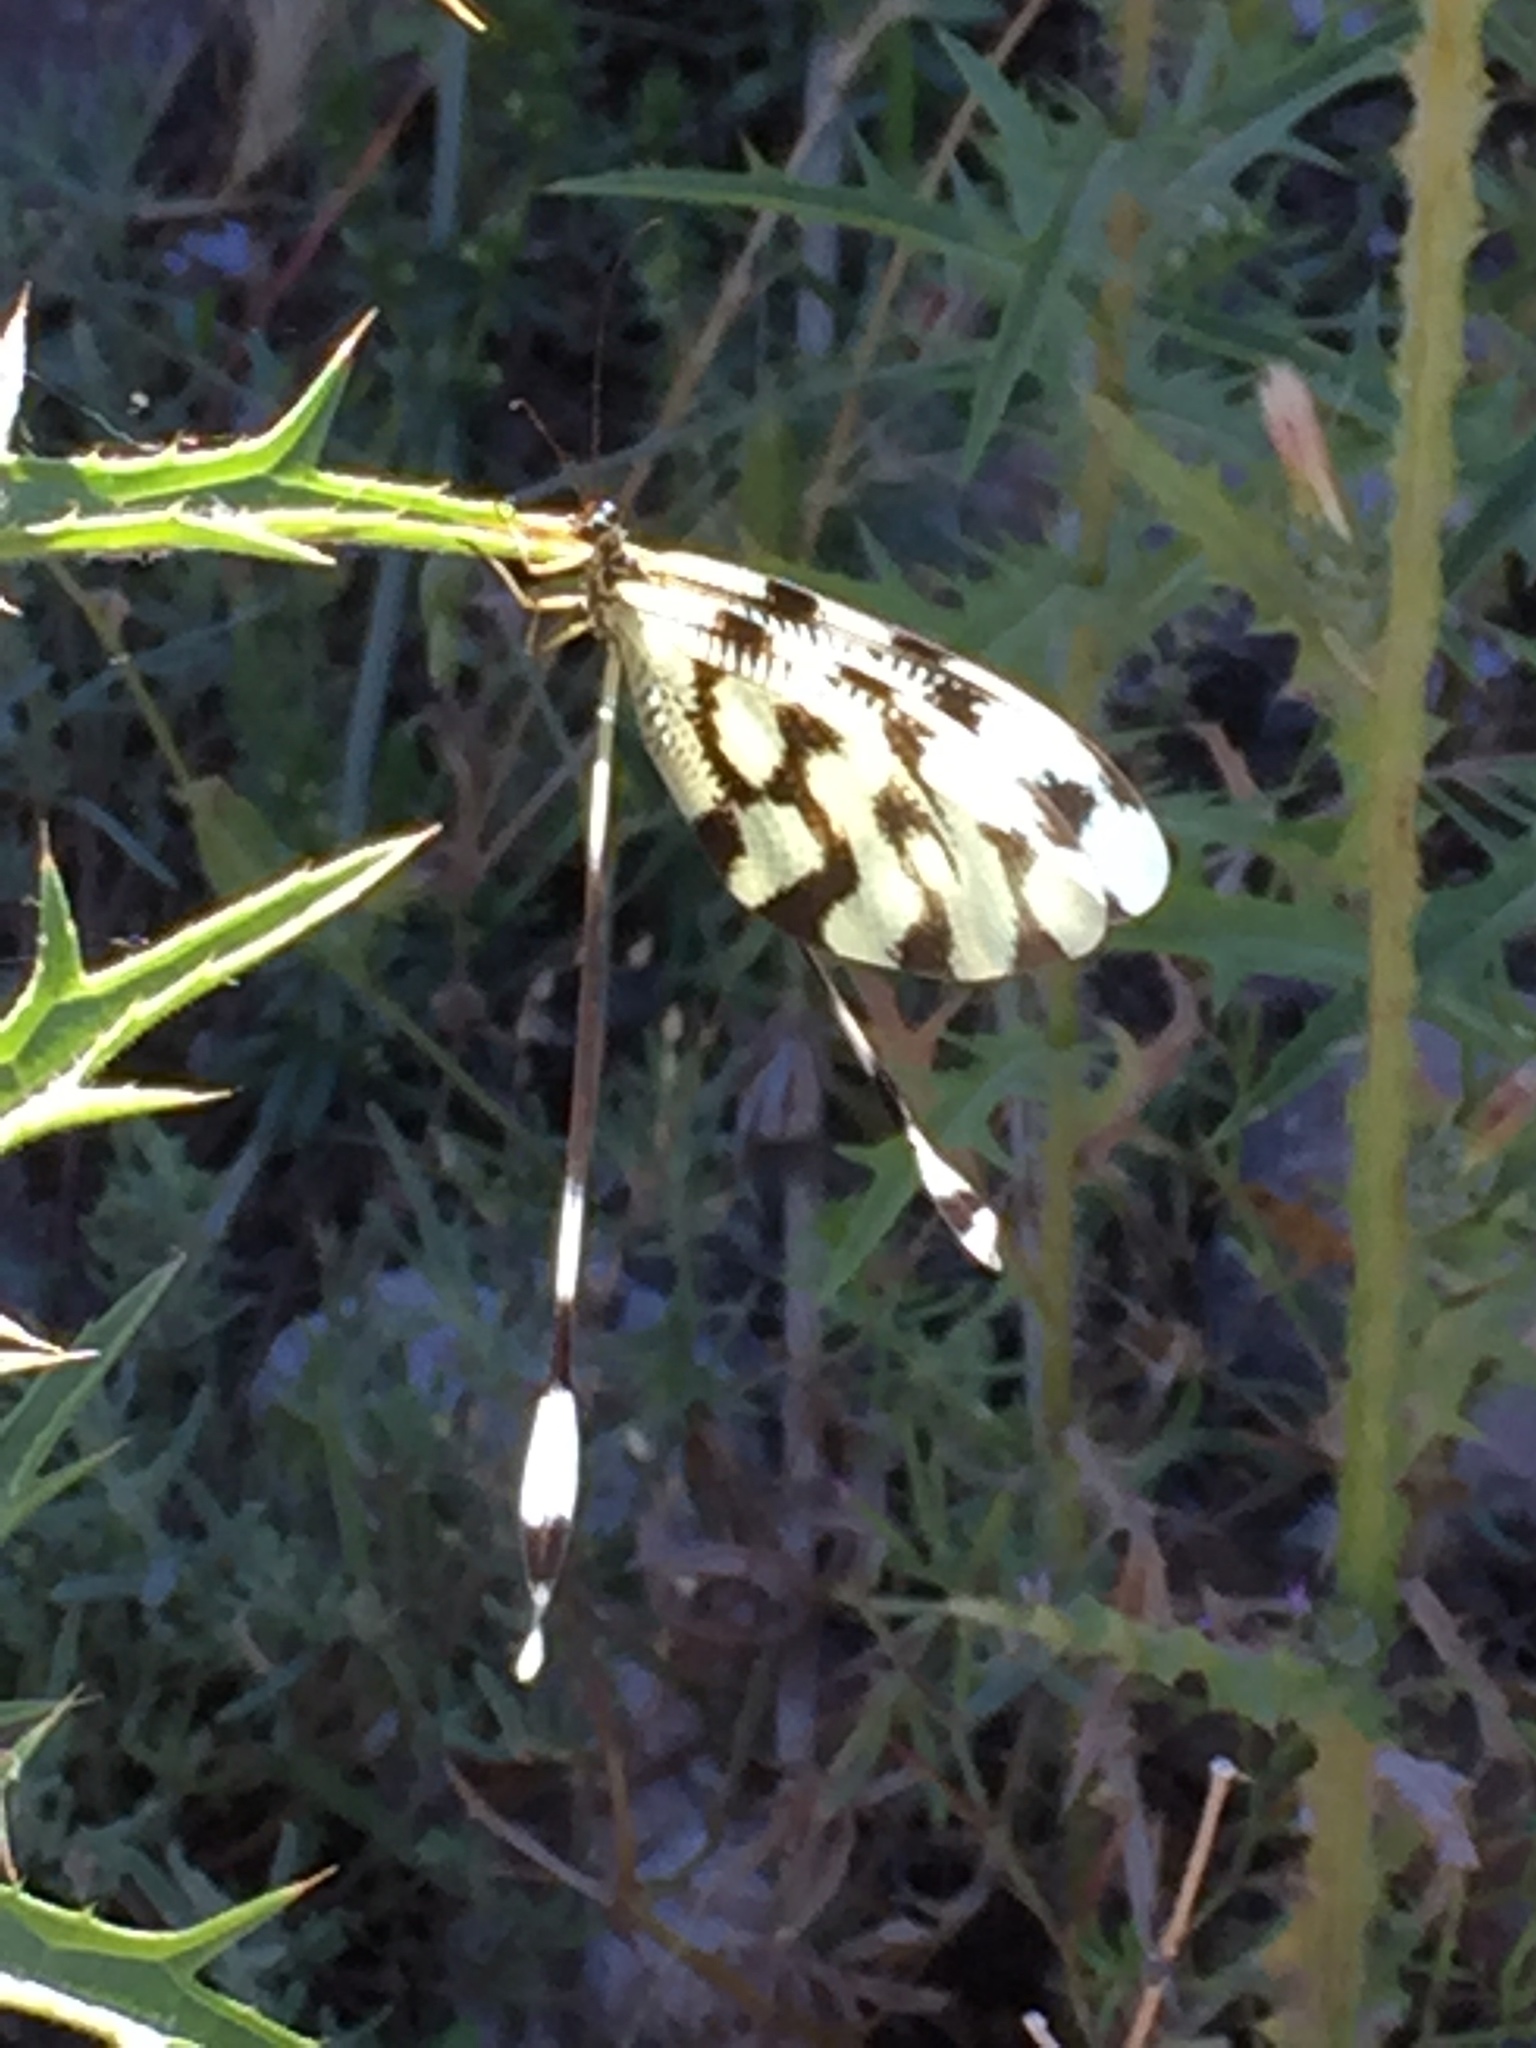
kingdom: Animalia
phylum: Arthropoda
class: Insecta
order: Neuroptera
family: Nemopteridae
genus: Nemoptera
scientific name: Nemoptera sinuata
